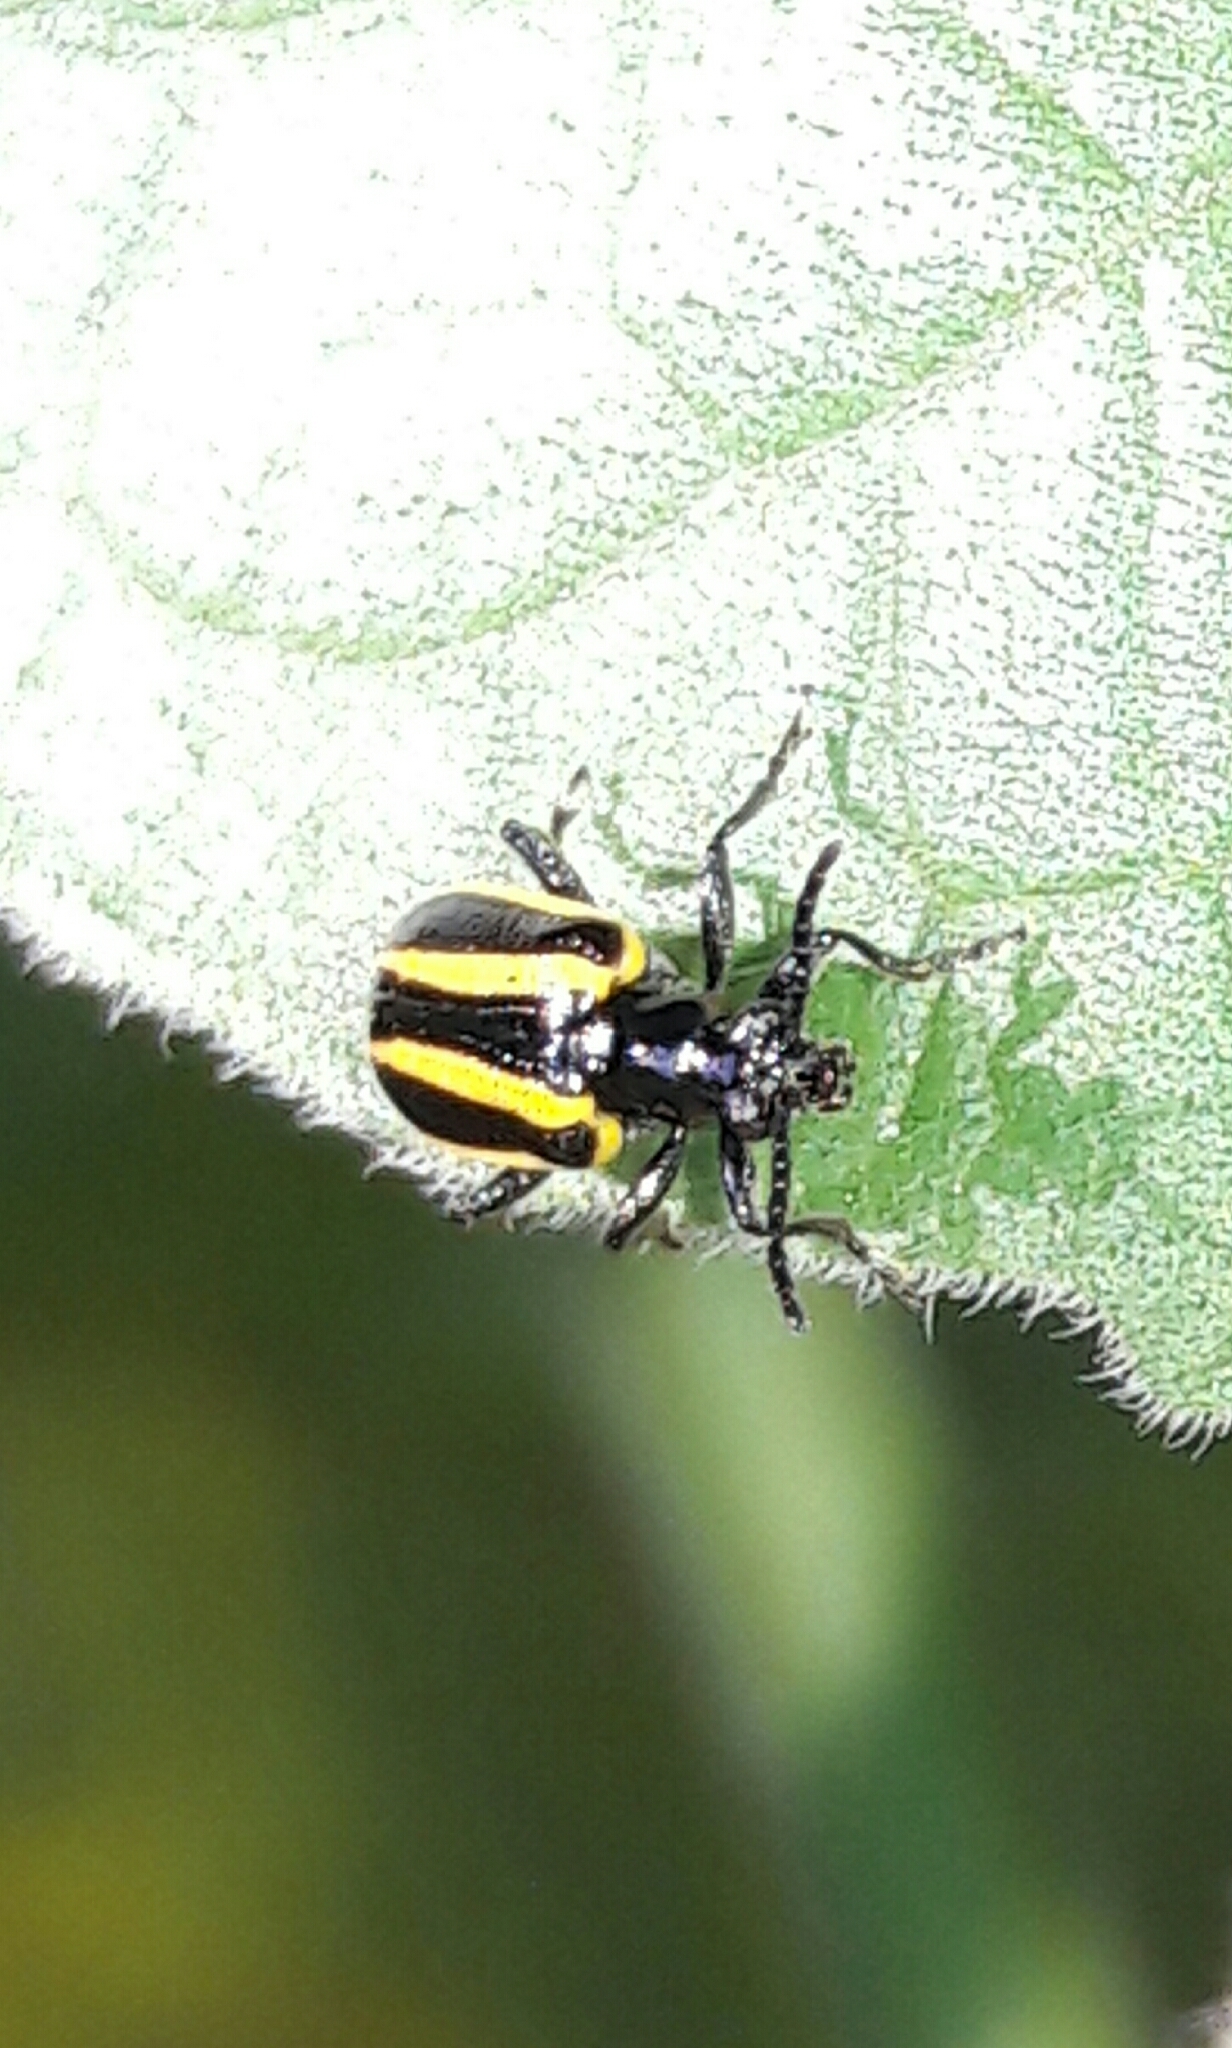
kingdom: Animalia
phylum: Arthropoda
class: Insecta
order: Coleoptera
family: Chrysomelidae
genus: Lema
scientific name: Lema confusa
